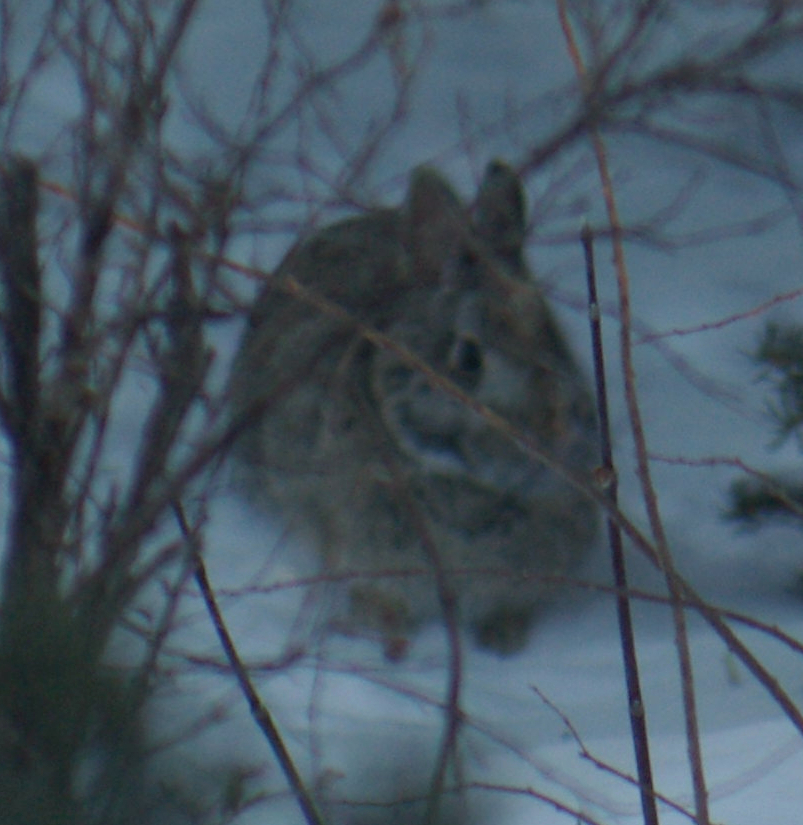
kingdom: Animalia
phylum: Chordata
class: Mammalia
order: Lagomorpha
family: Leporidae
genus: Sylvilagus
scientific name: Sylvilagus floridanus
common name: Eastern cottontail
